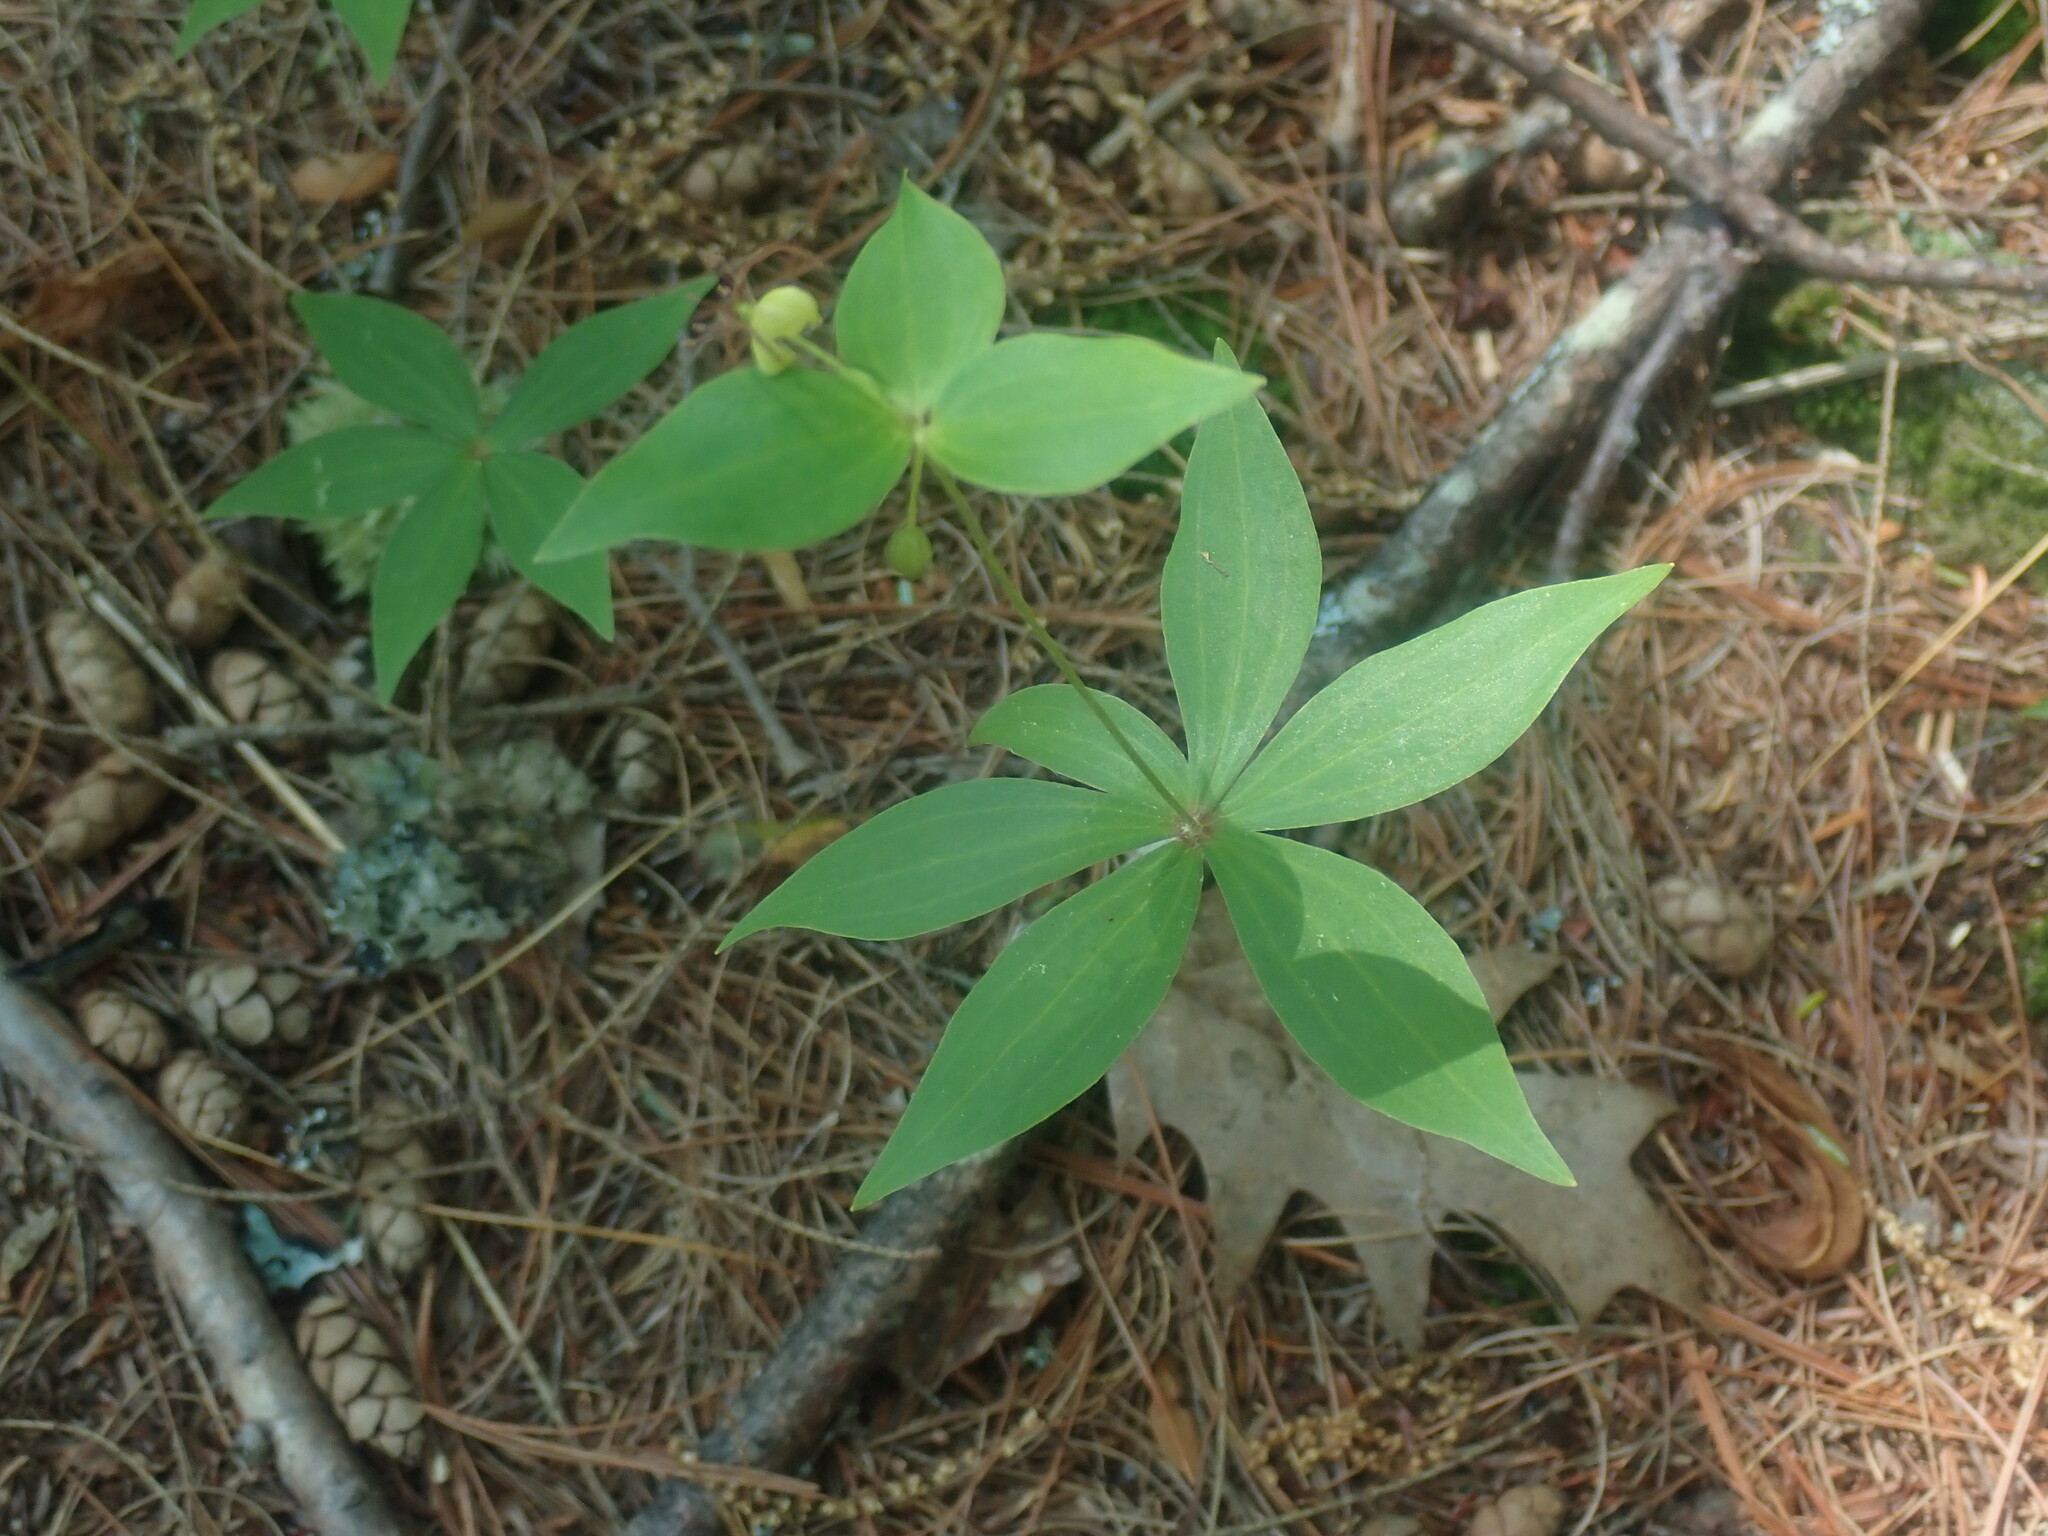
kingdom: Plantae
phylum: Tracheophyta
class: Liliopsida
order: Liliales
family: Liliaceae
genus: Medeola
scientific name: Medeola virginiana
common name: Indian cucumber-root
